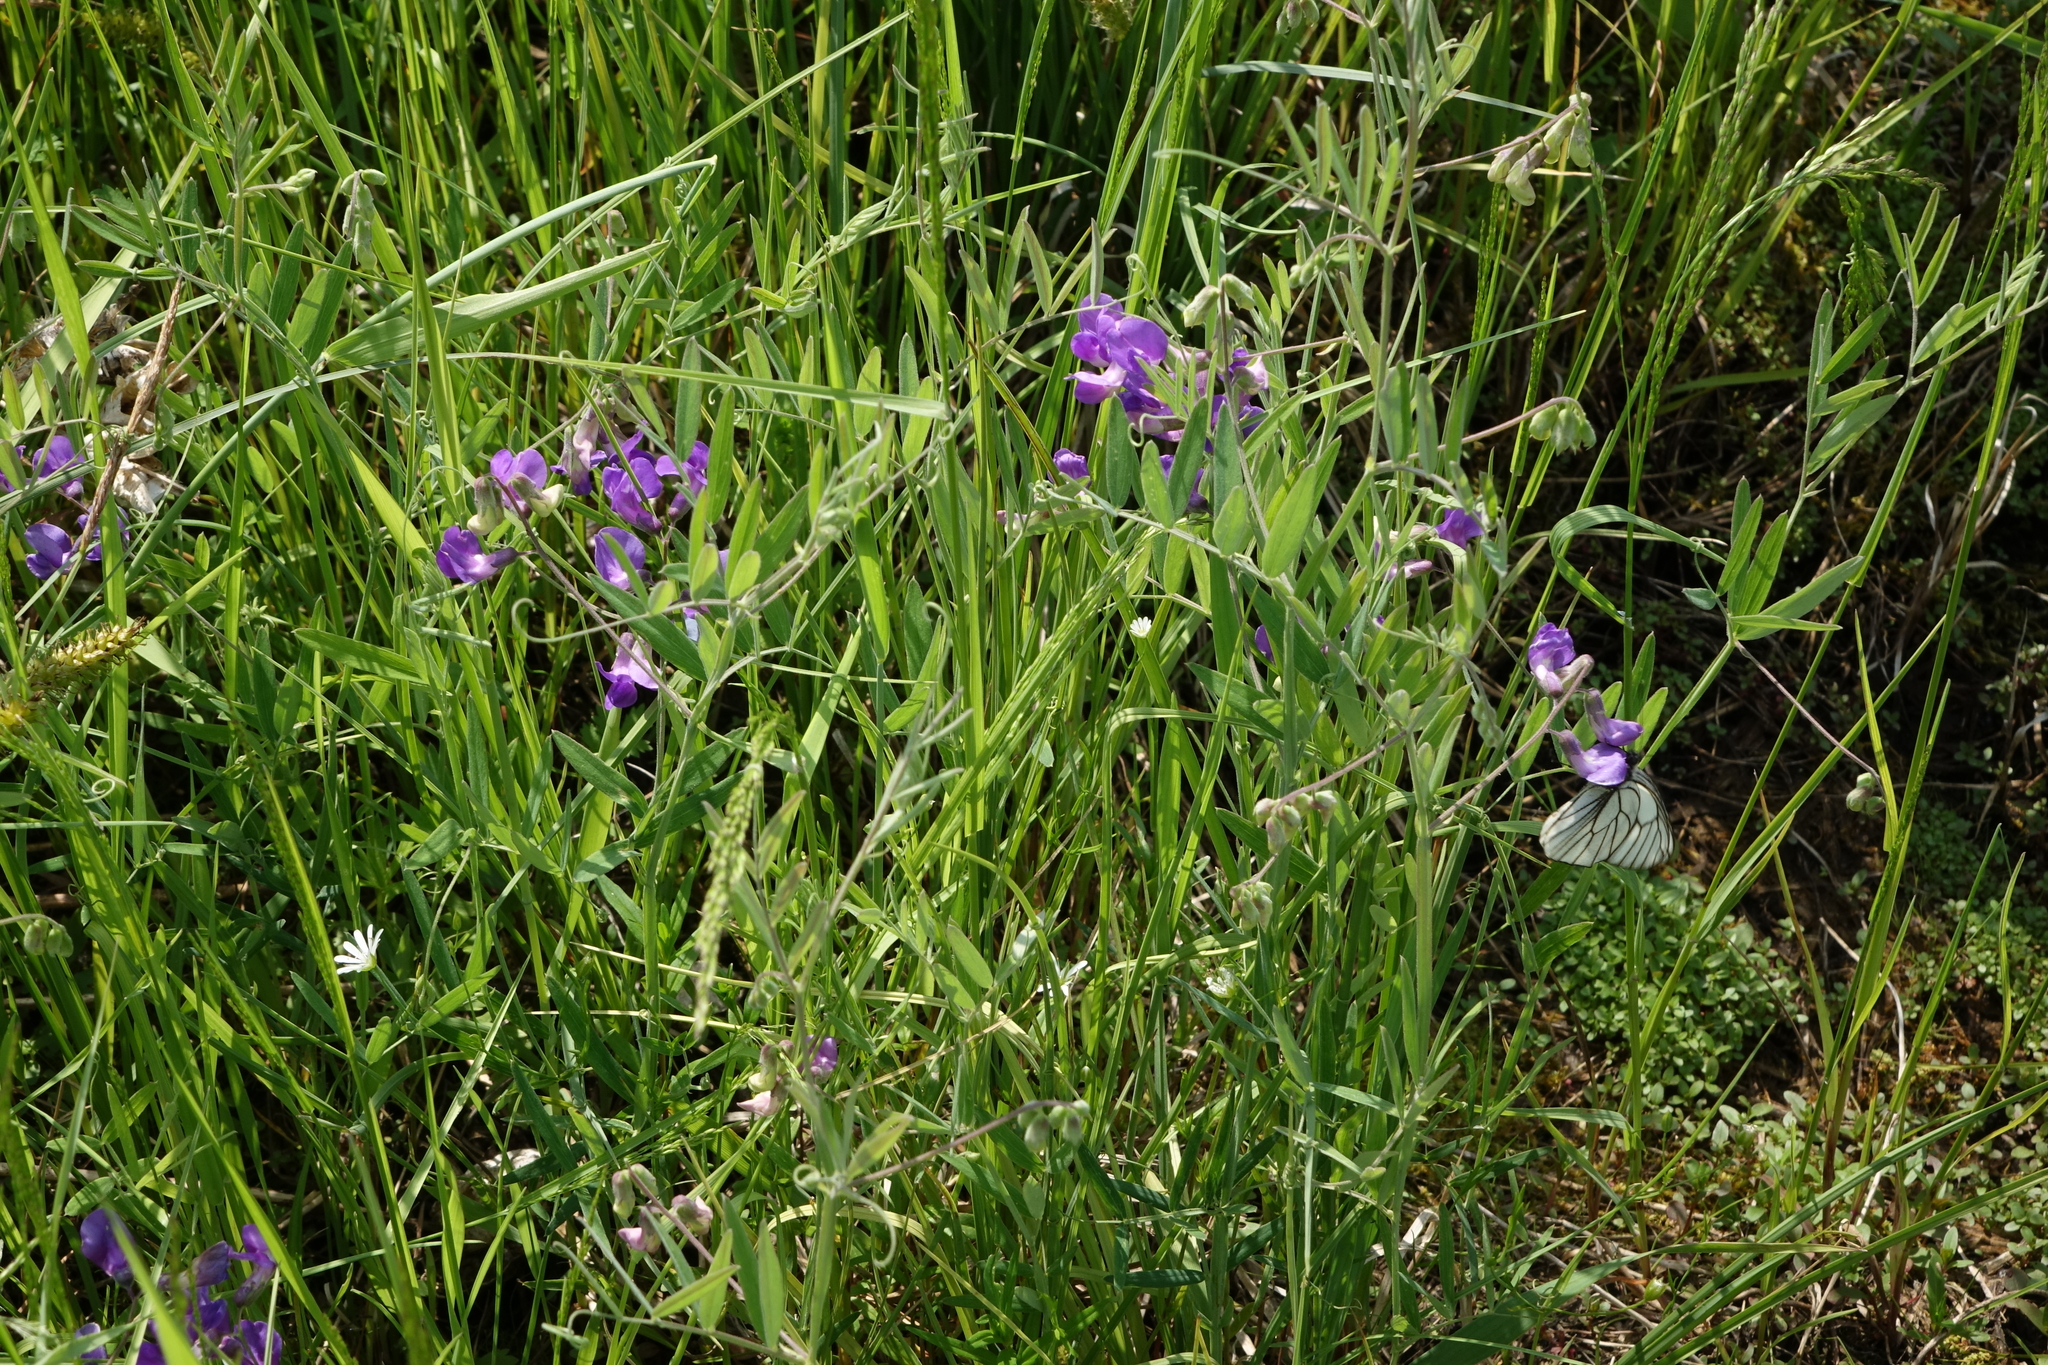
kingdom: Plantae
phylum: Tracheophyta
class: Magnoliopsida
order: Fabales
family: Fabaceae
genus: Lathyrus
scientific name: Lathyrus palustris
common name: Marsh pea
